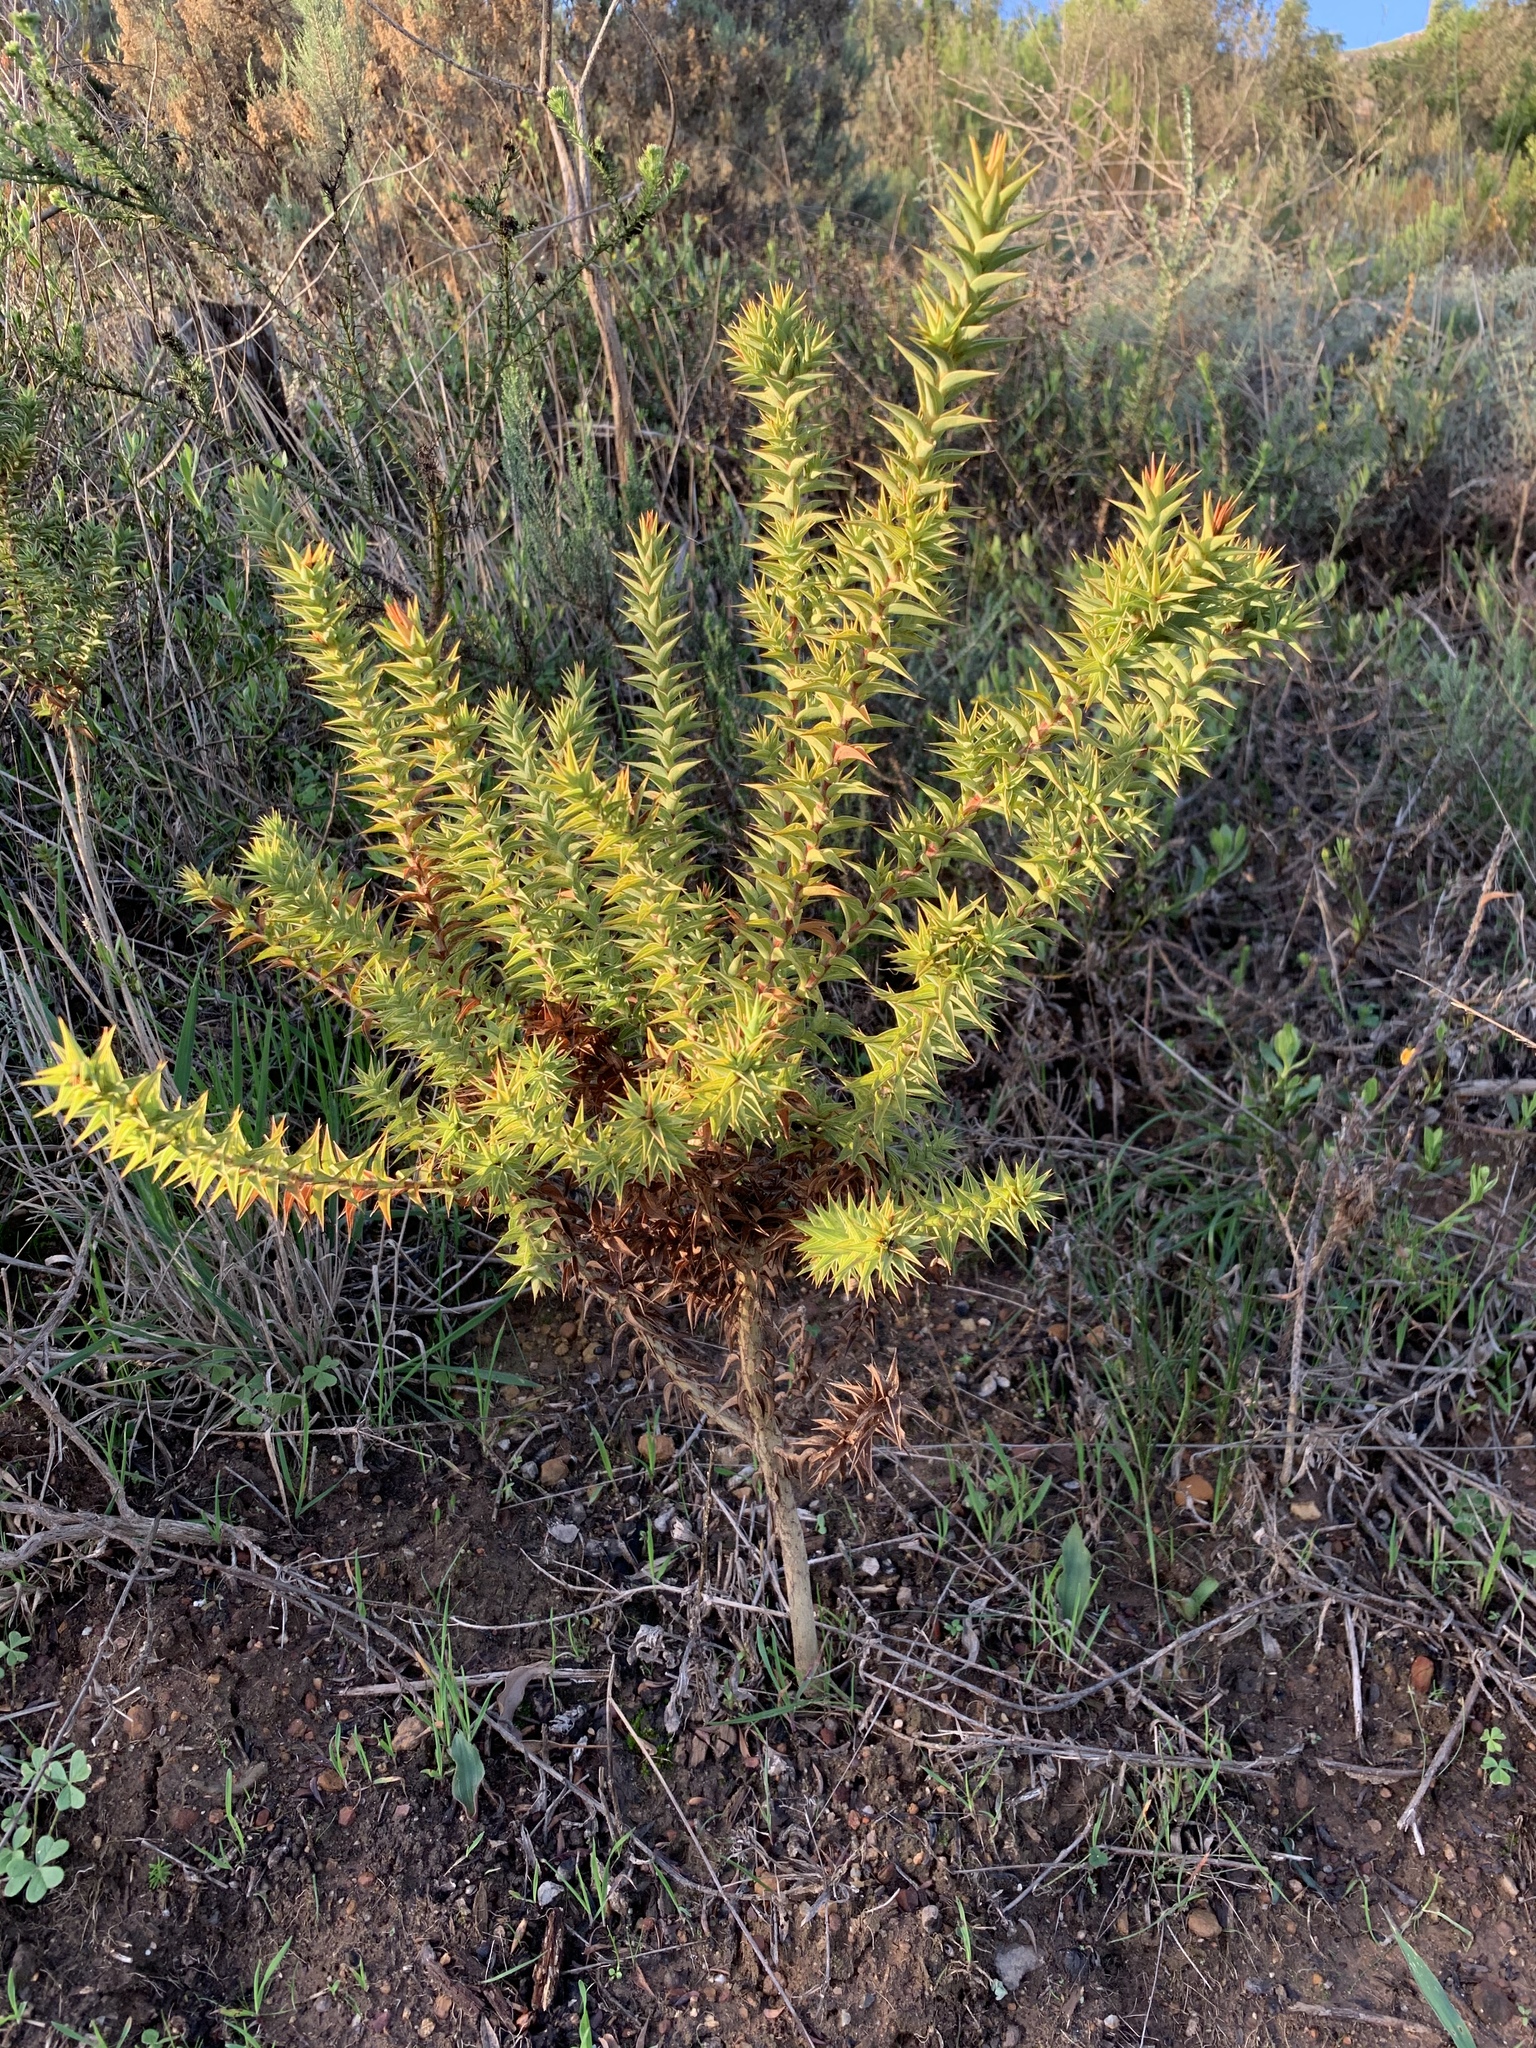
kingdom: Plantae
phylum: Tracheophyta
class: Magnoliopsida
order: Fabales
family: Fabaceae
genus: Aspalathus
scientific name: Aspalathus cordata
